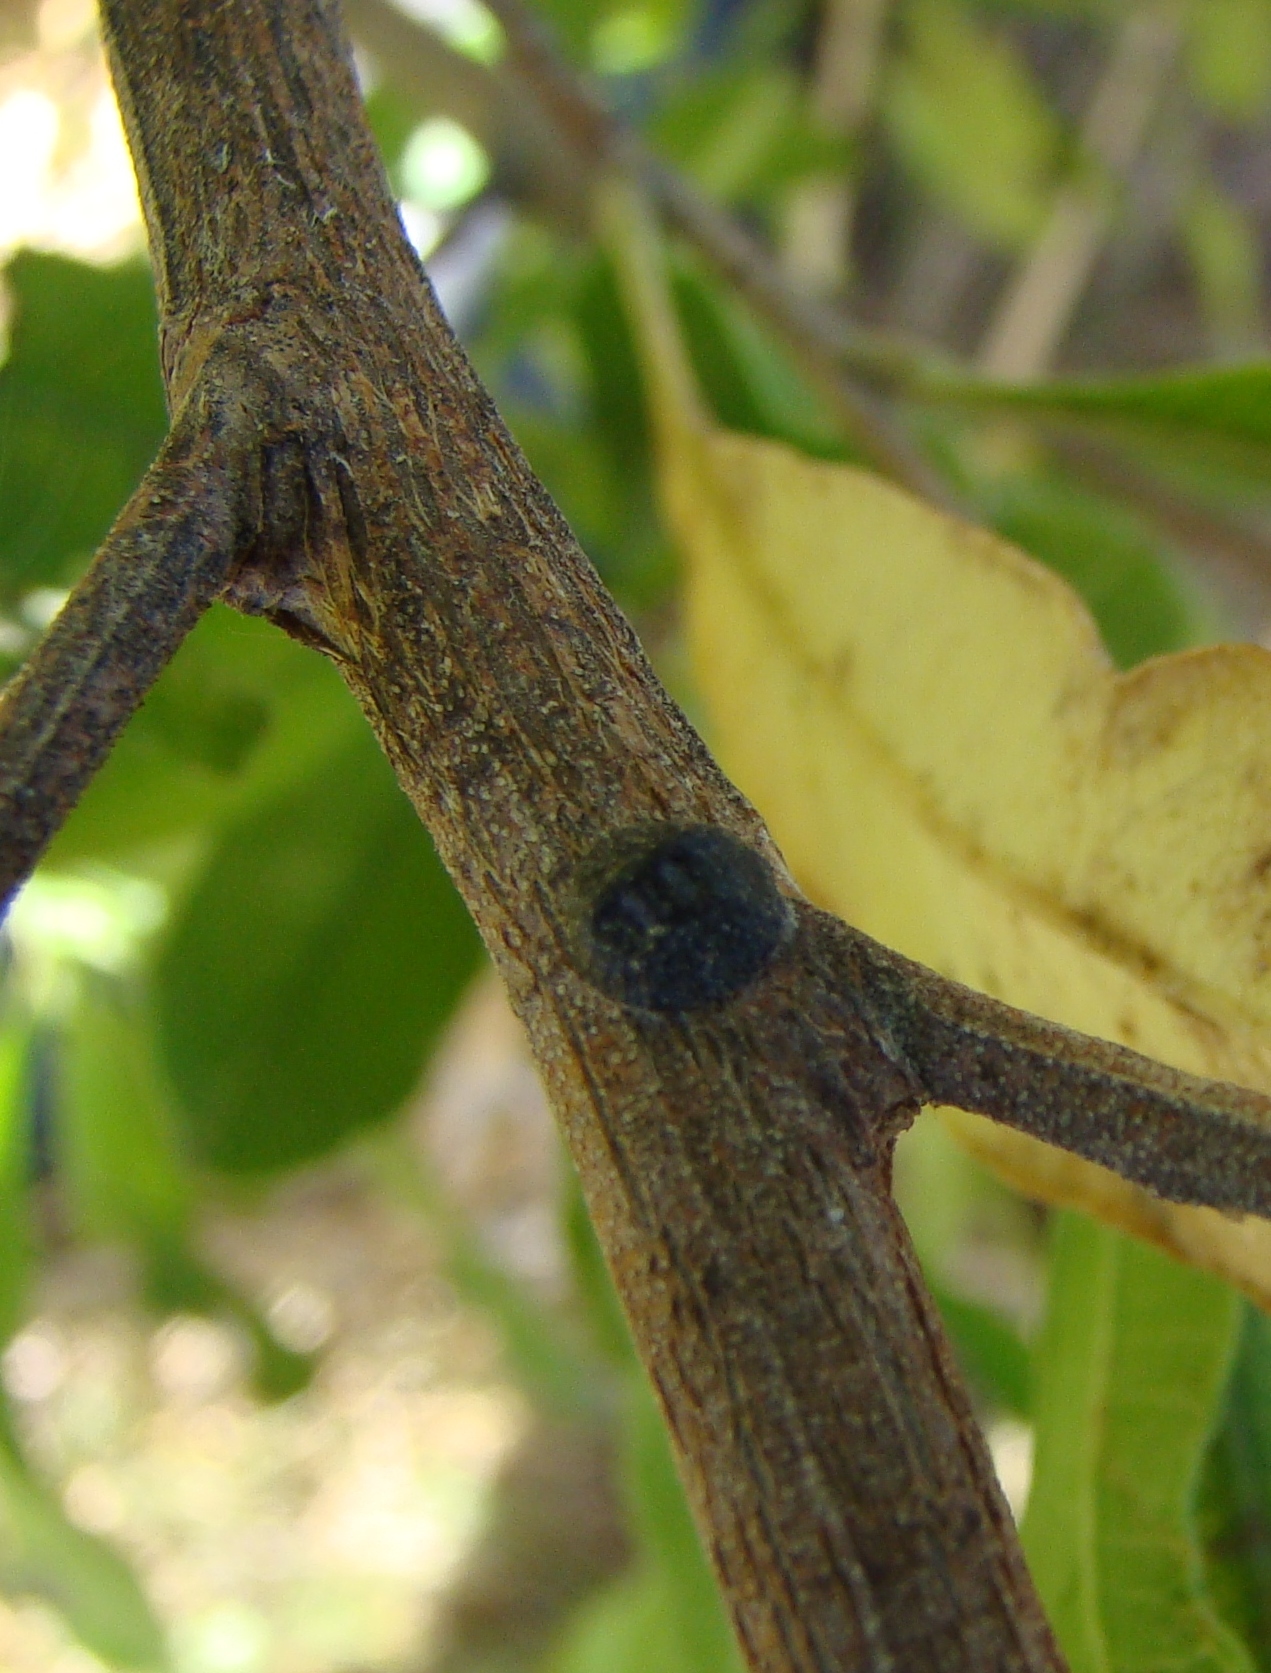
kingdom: Animalia
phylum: Arthropoda
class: Insecta
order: Hemiptera
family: Coccidae
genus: Saissetia
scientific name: Saissetia oleae
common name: Black scale
